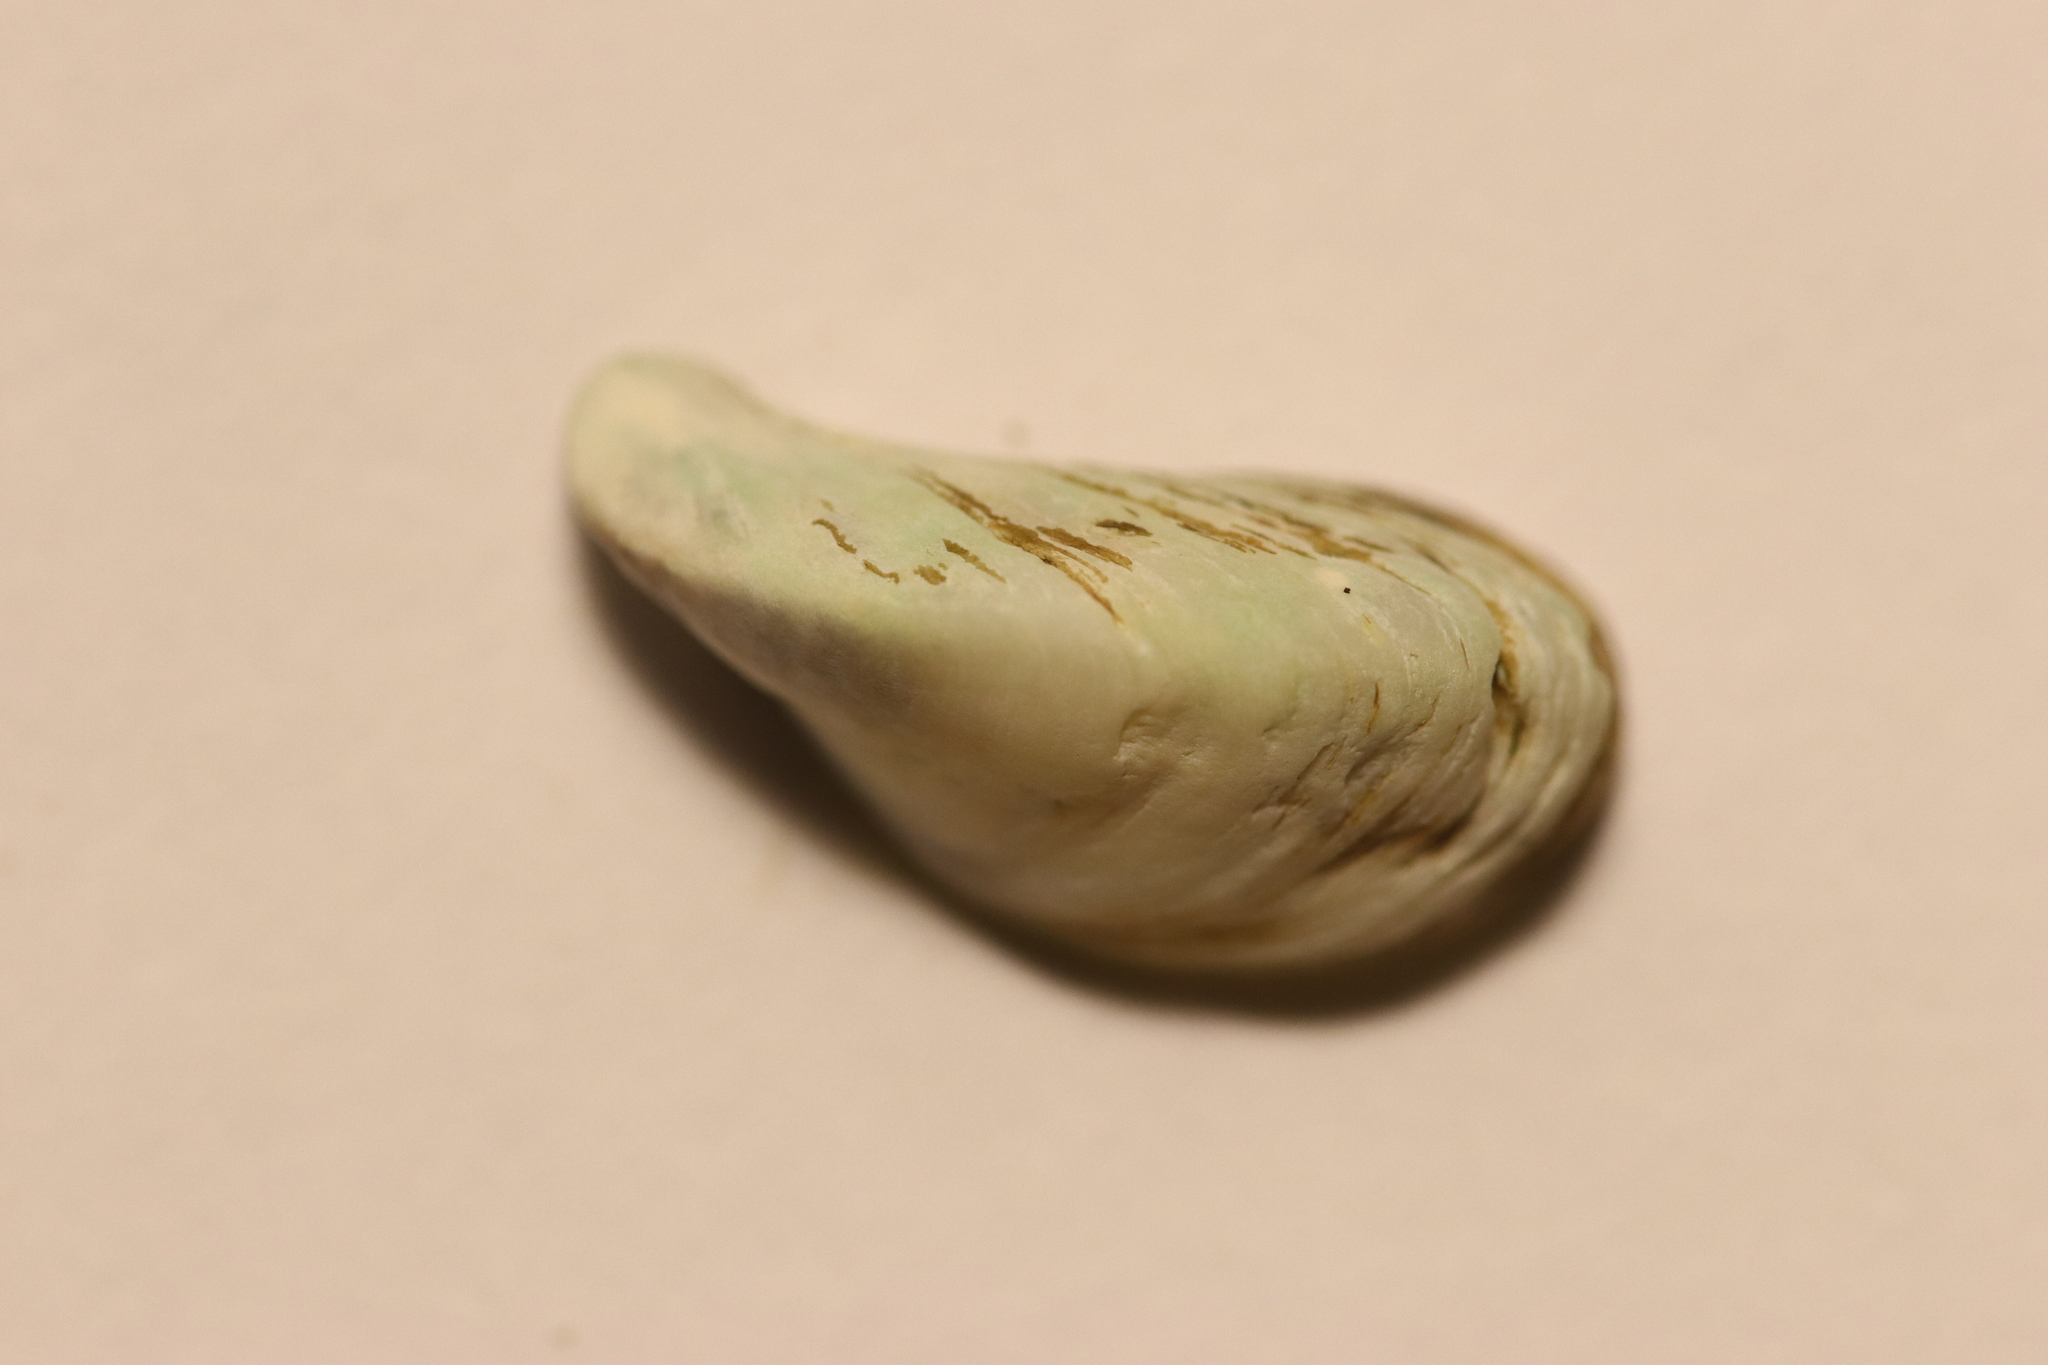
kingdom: Animalia
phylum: Mollusca
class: Bivalvia
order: Myida
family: Dreissenidae
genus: Dreissena
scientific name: Dreissena polymorpha
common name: Zebra mussel
